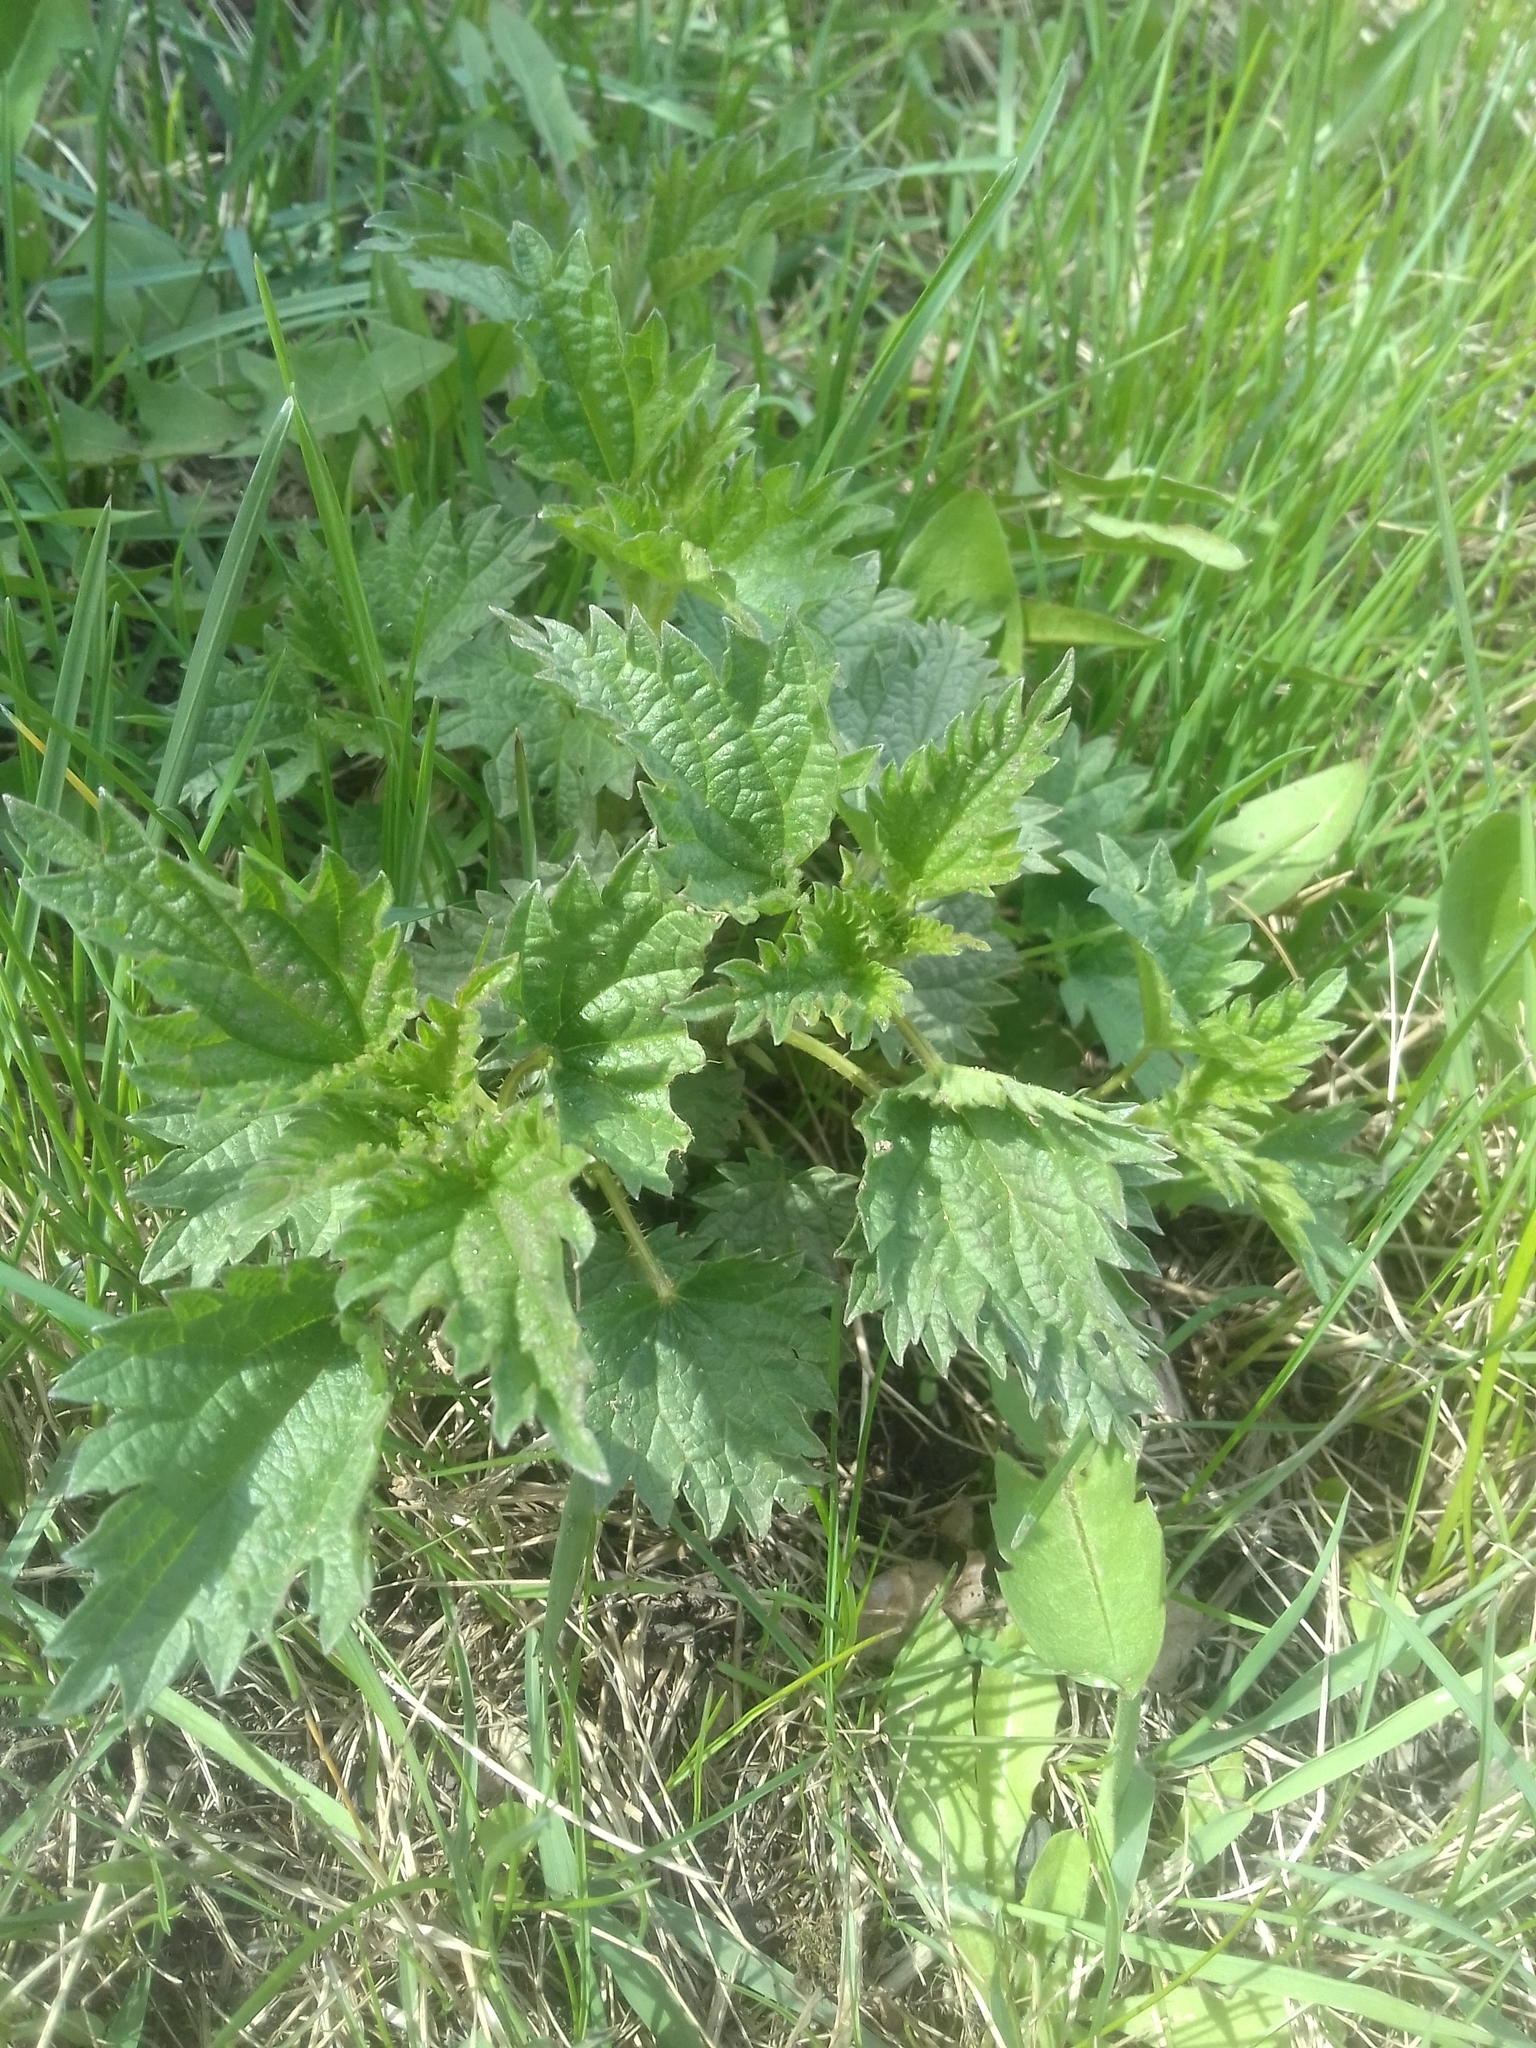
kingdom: Plantae
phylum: Tracheophyta
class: Magnoliopsida
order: Rosales
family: Urticaceae
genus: Urtica
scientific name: Urtica dioica
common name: Common nettle
